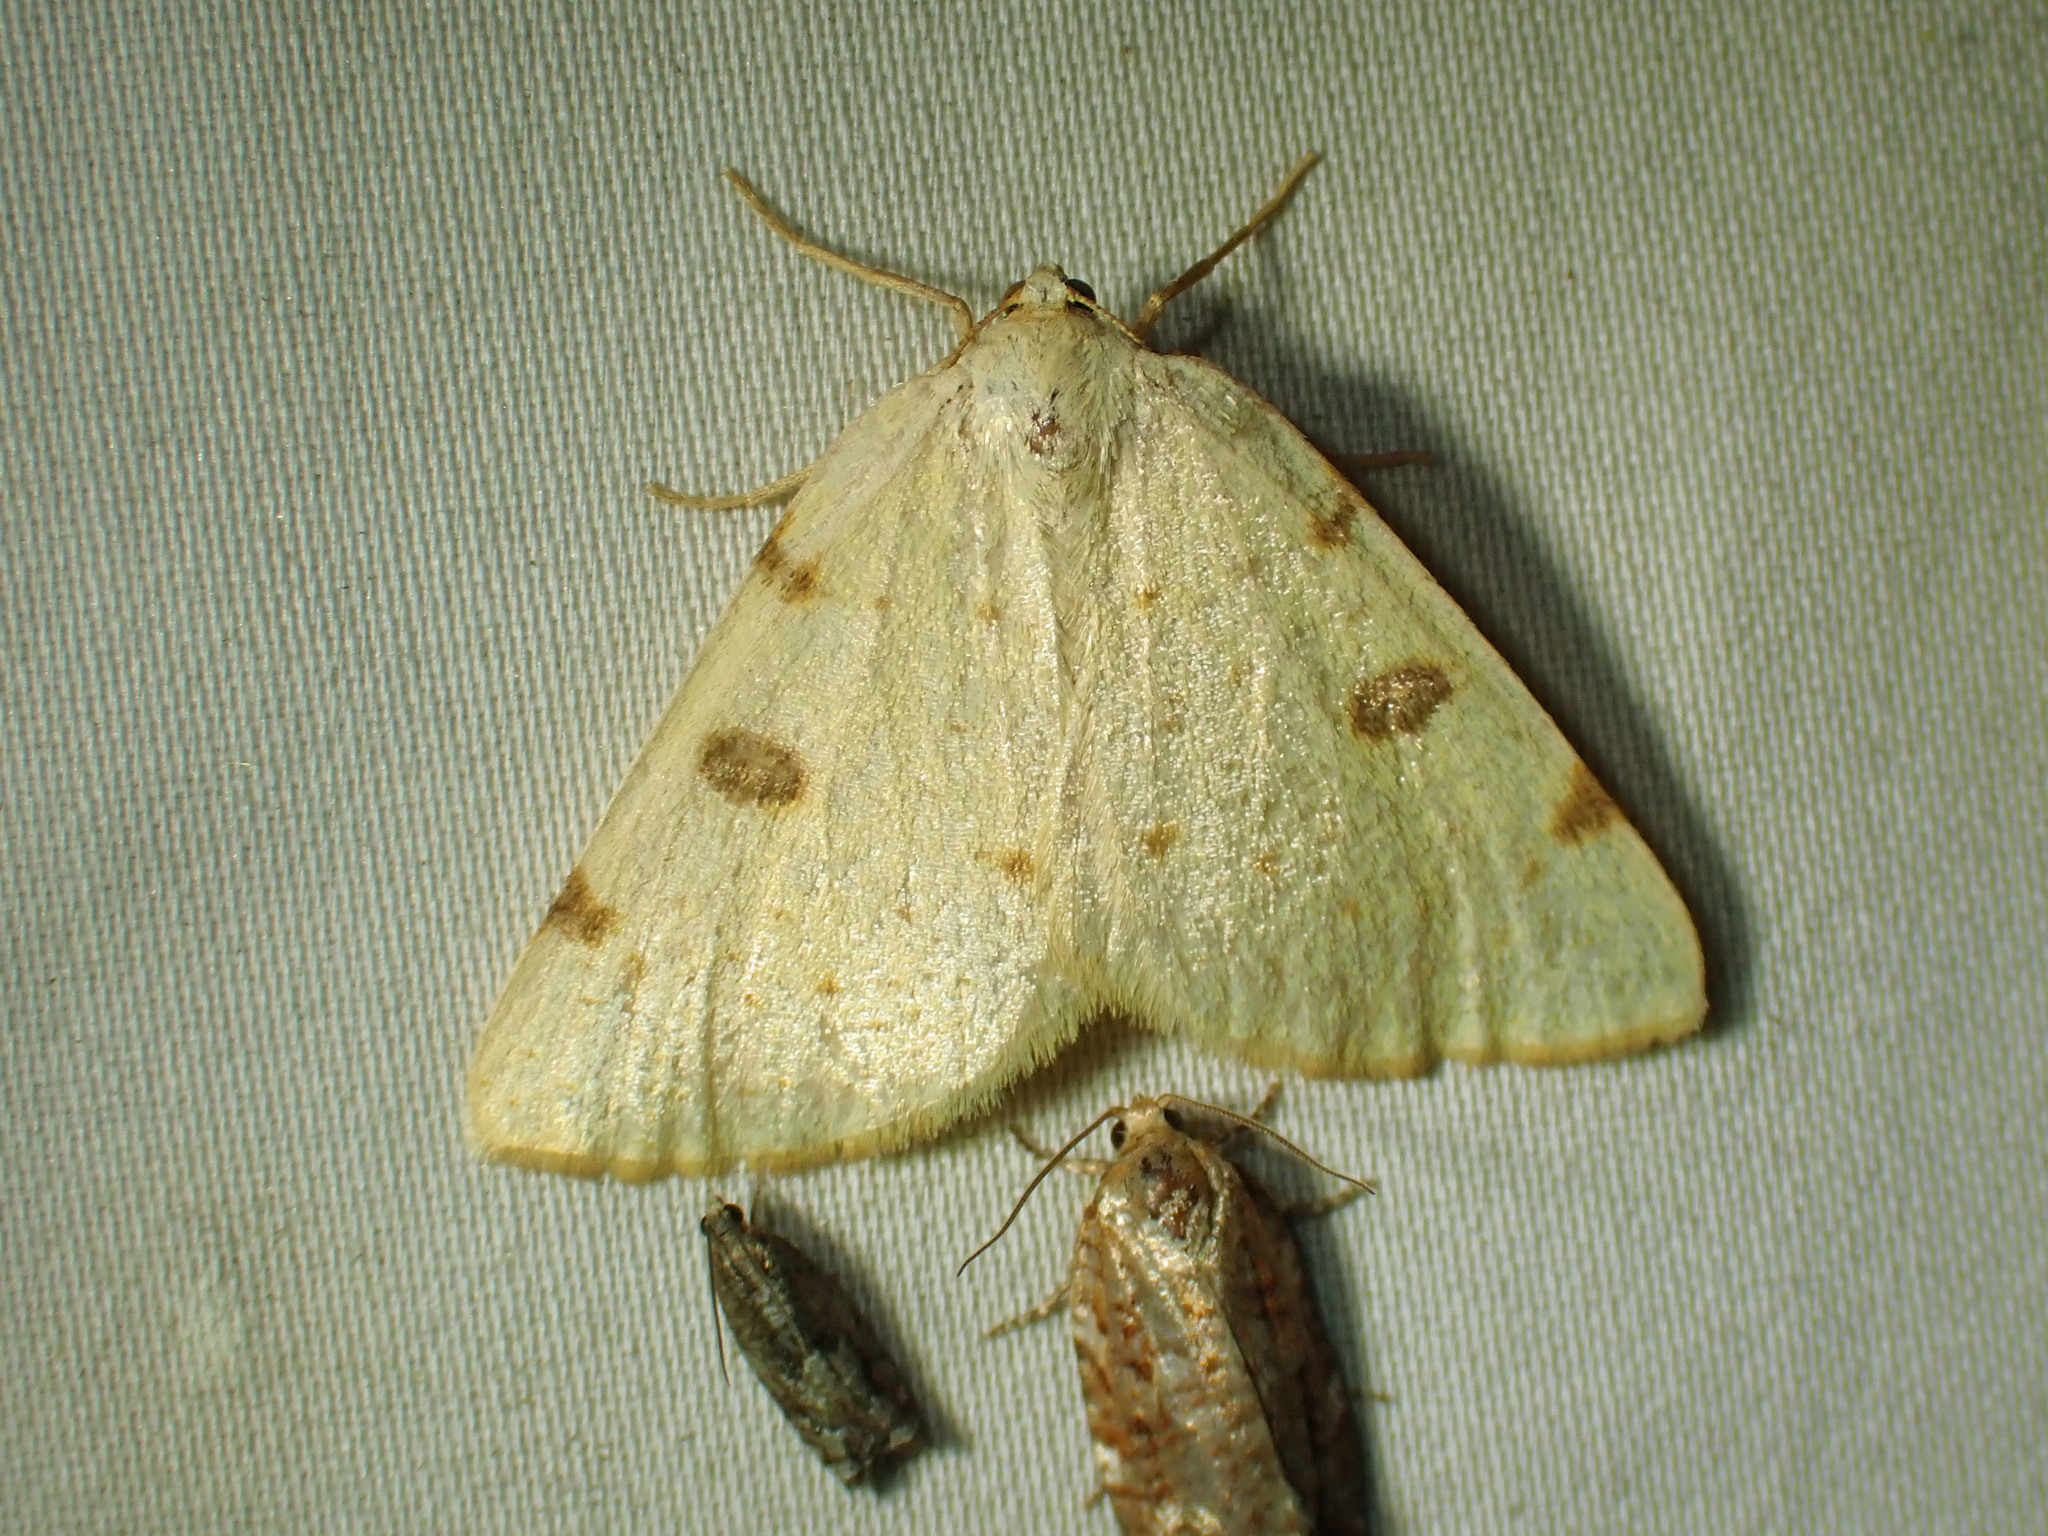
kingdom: Animalia
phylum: Arthropoda
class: Insecta
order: Lepidoptera
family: Geometridae
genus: Hesperumia
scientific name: Hesperumia sulphuraria
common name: Sulphur moth
